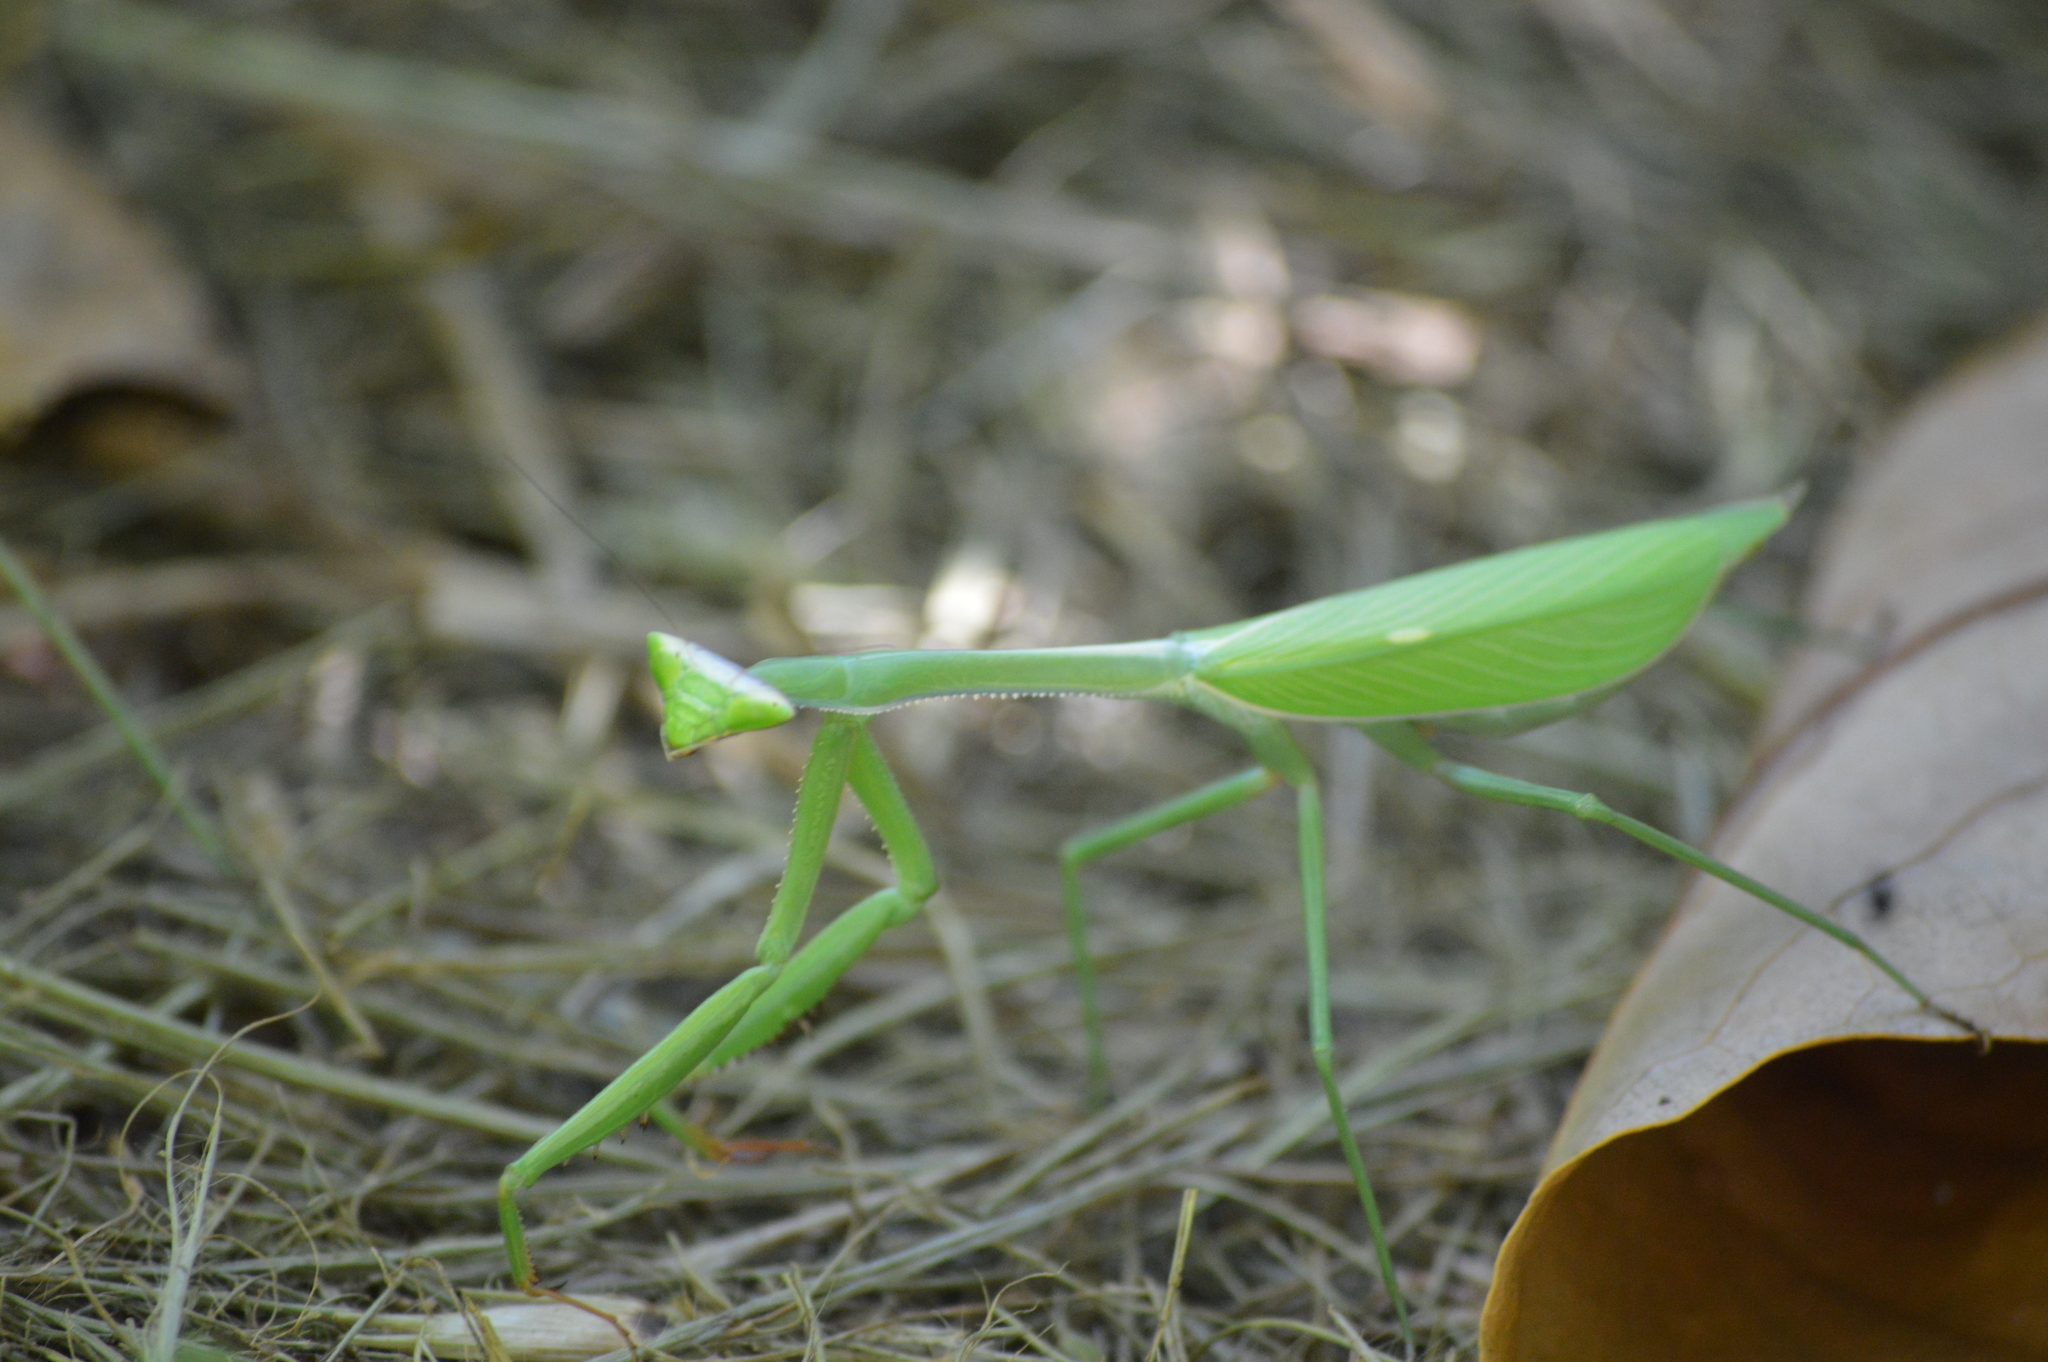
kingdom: Animalia
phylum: Arthropoda
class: Insecta
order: Mantodea
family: Mantidae
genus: Oxyopsis
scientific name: Oxyopsis
